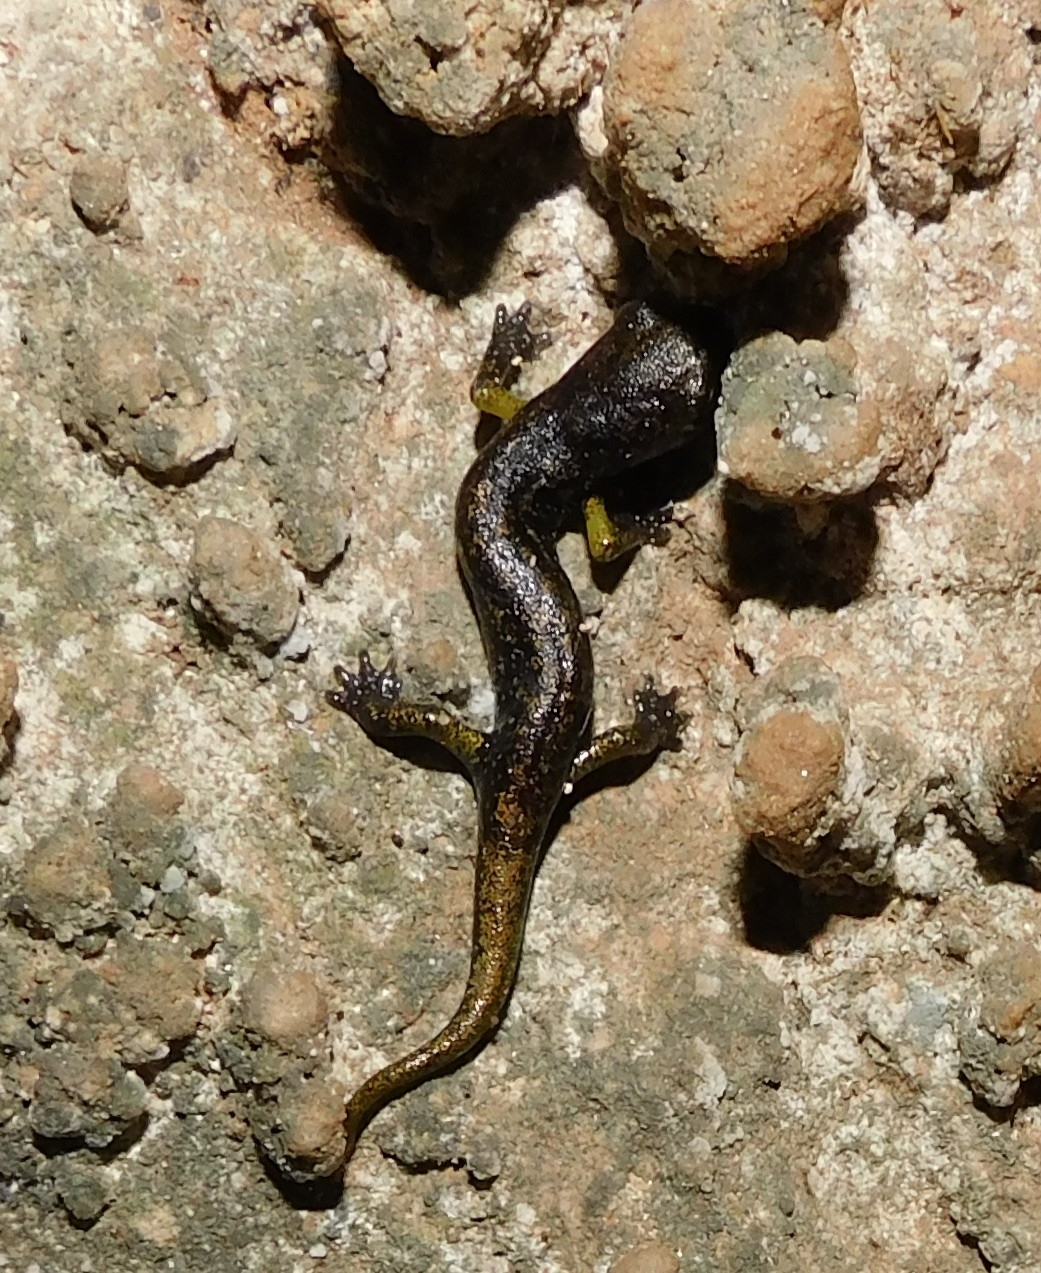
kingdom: Animalia
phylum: Chordata
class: Amphibia
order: Caudata
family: Plethodontidae
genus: Speleomantes
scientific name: Speleomantes ambrosii
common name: Ambrosi's cave salamander
